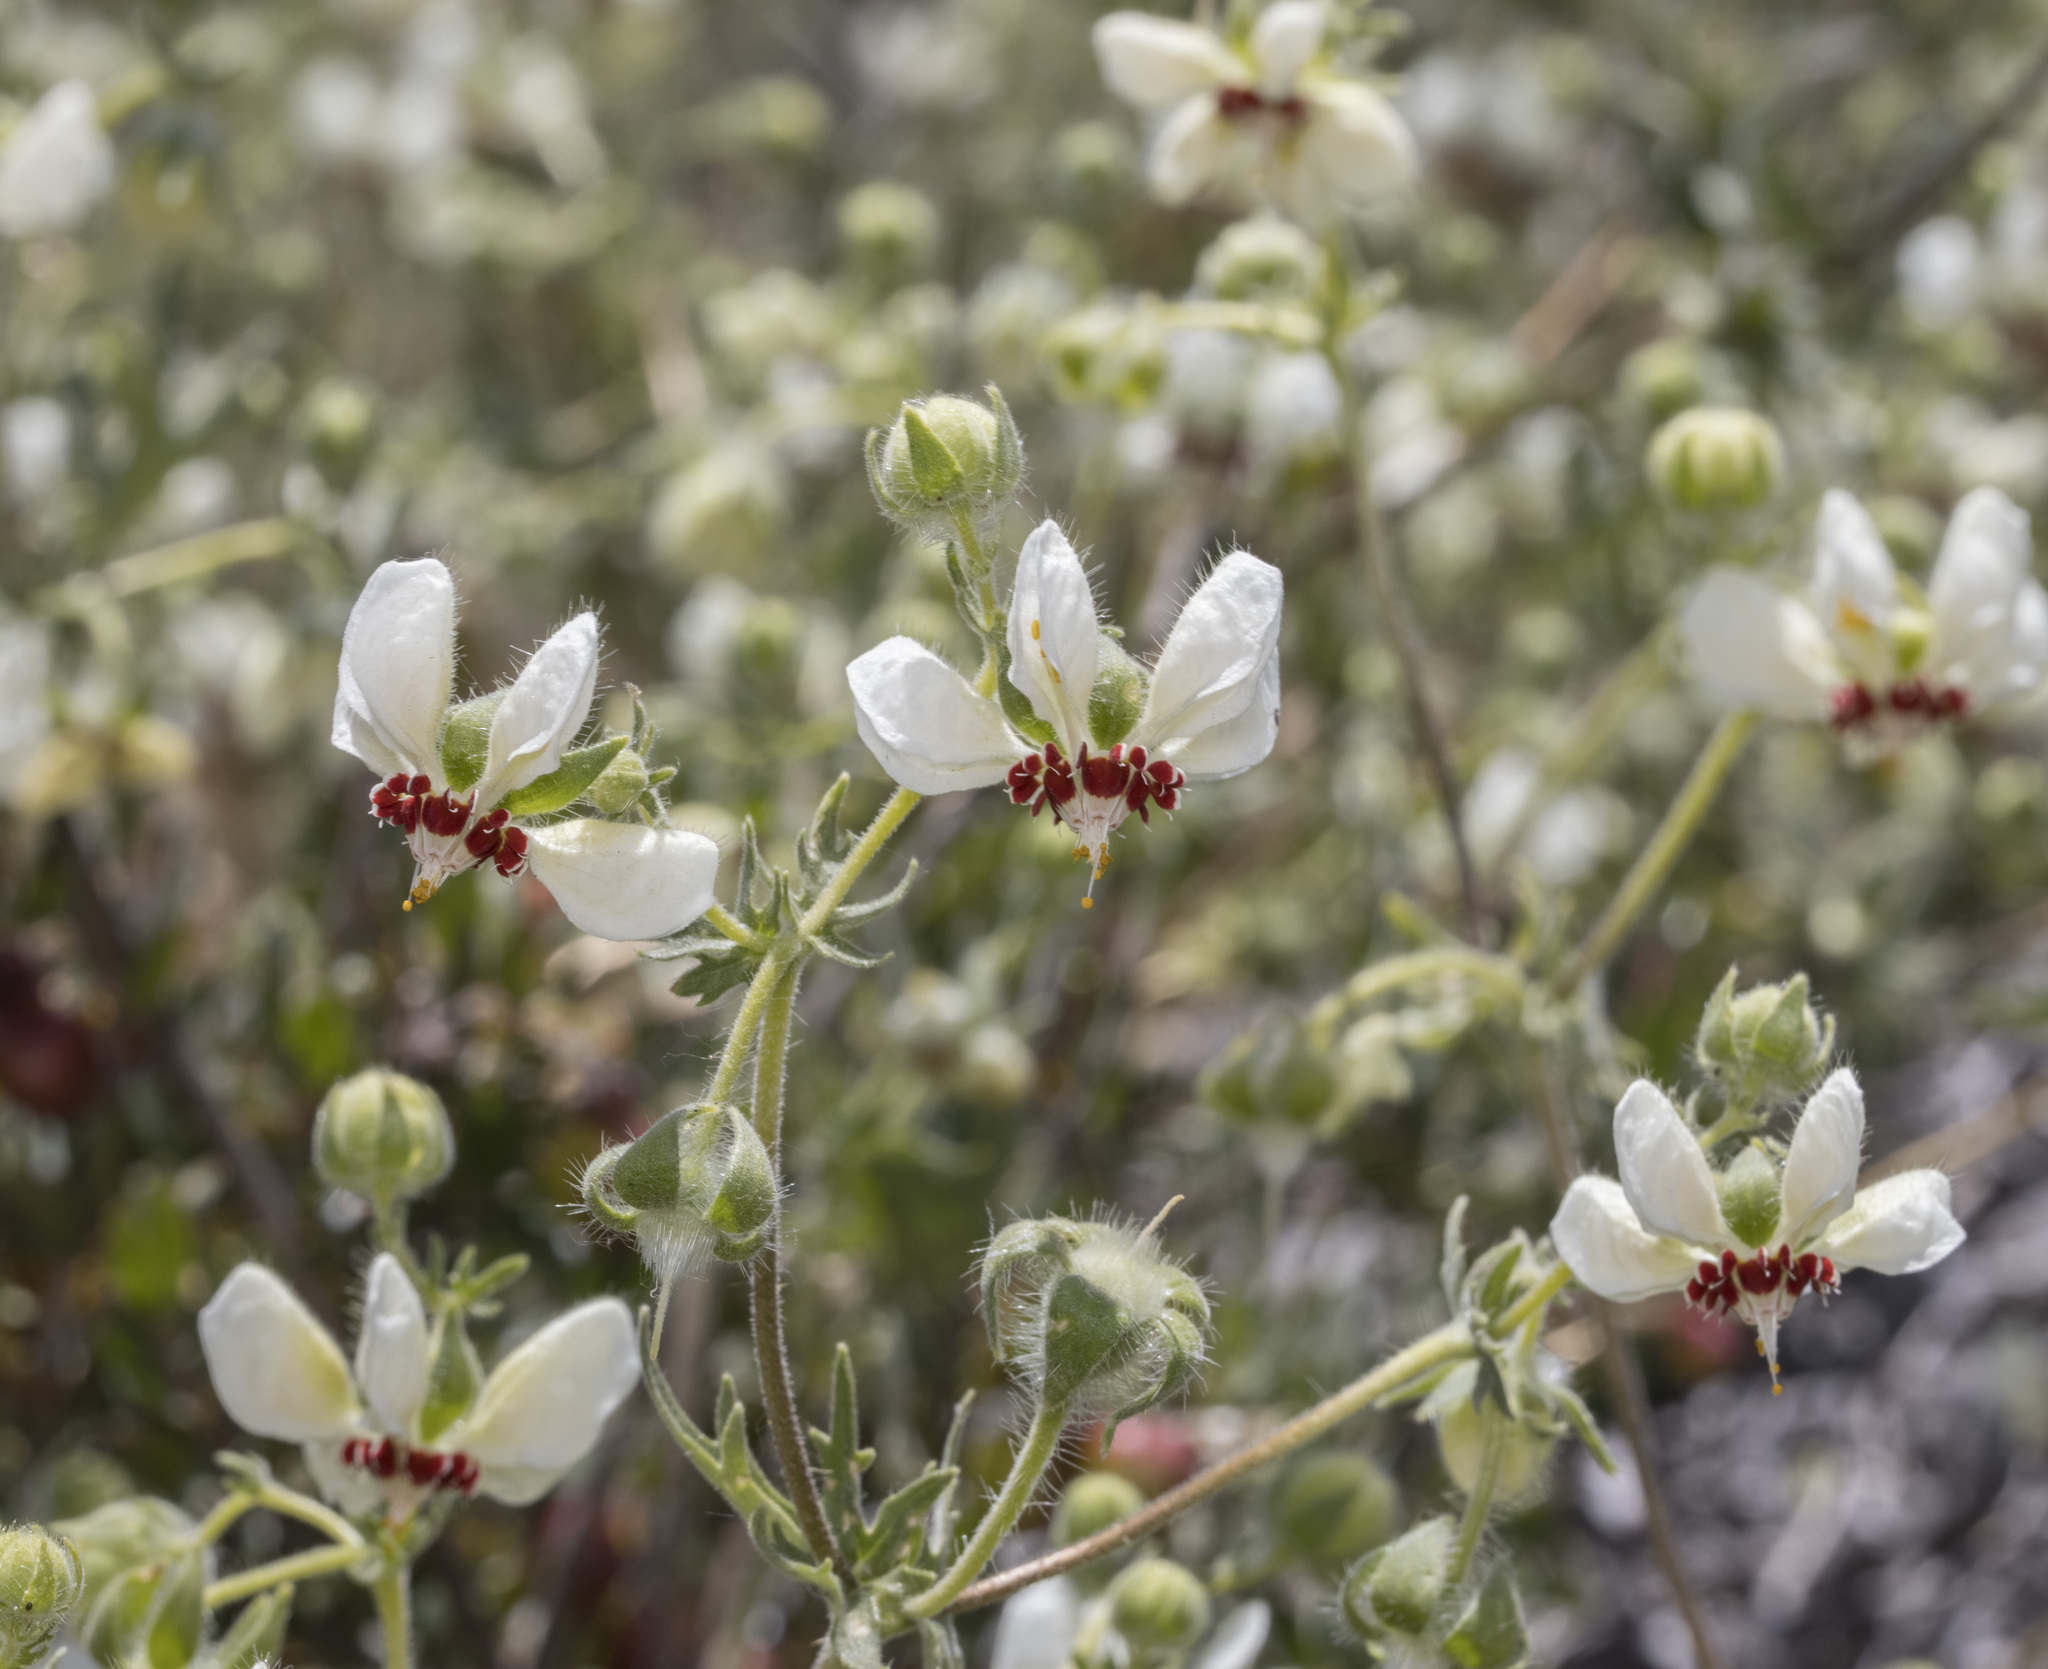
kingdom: Plantae
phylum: Tracheophyta
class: Magnoliopsida
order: Cornales
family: Loasaceae
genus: Loasa
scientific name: Loasa prostrata
